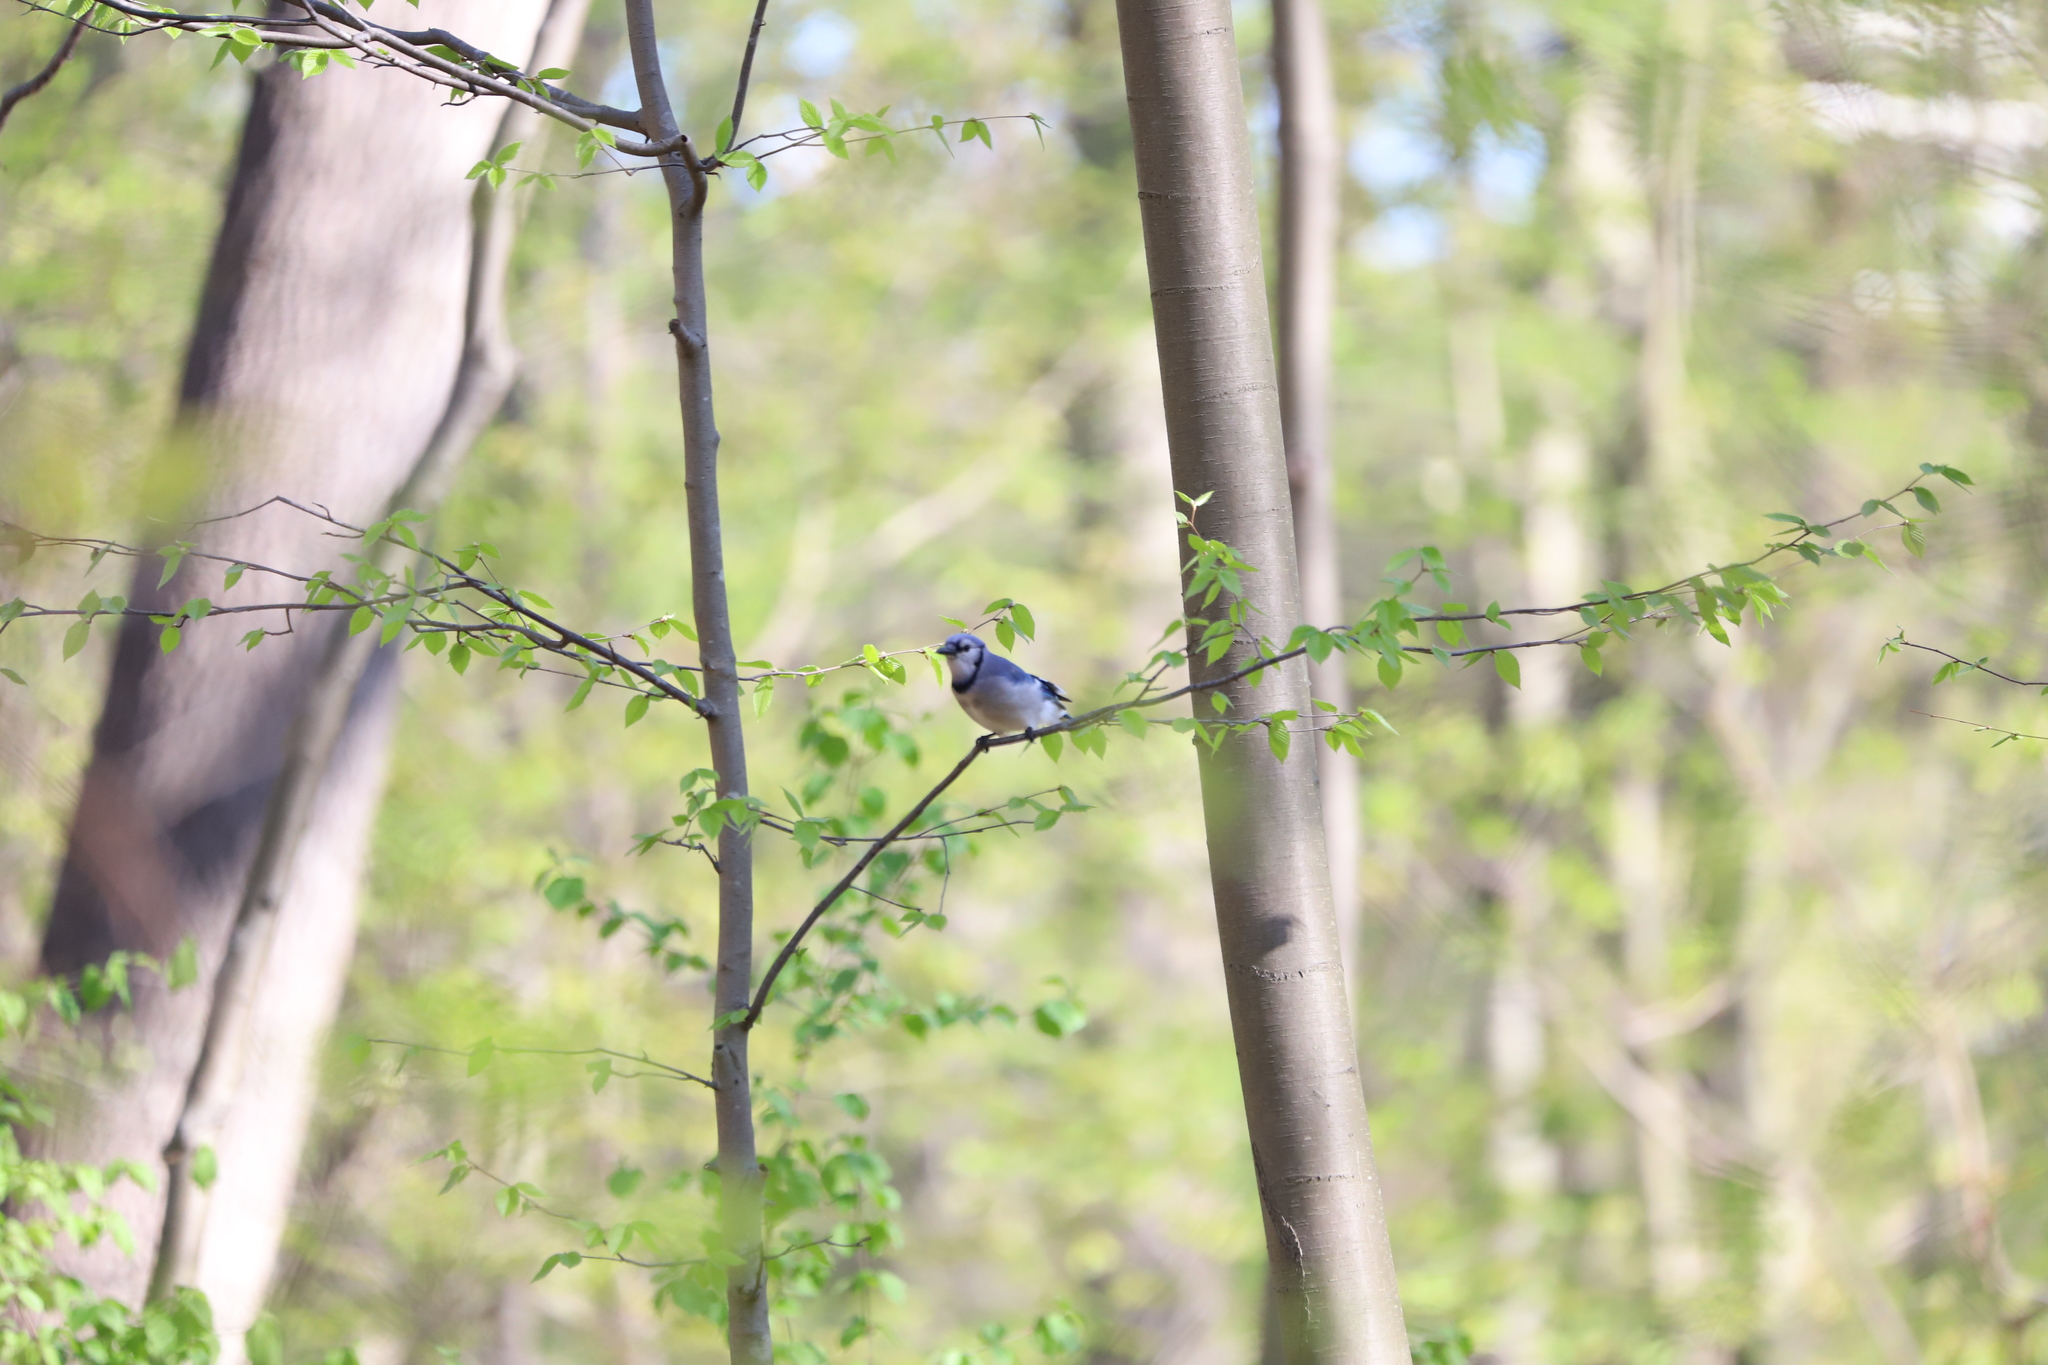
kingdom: Animalia
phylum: Chordata
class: Aves
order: Passeriformes
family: Corvidae
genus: Cyanocitta
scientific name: Cyanocitta cristata
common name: Blue jay
